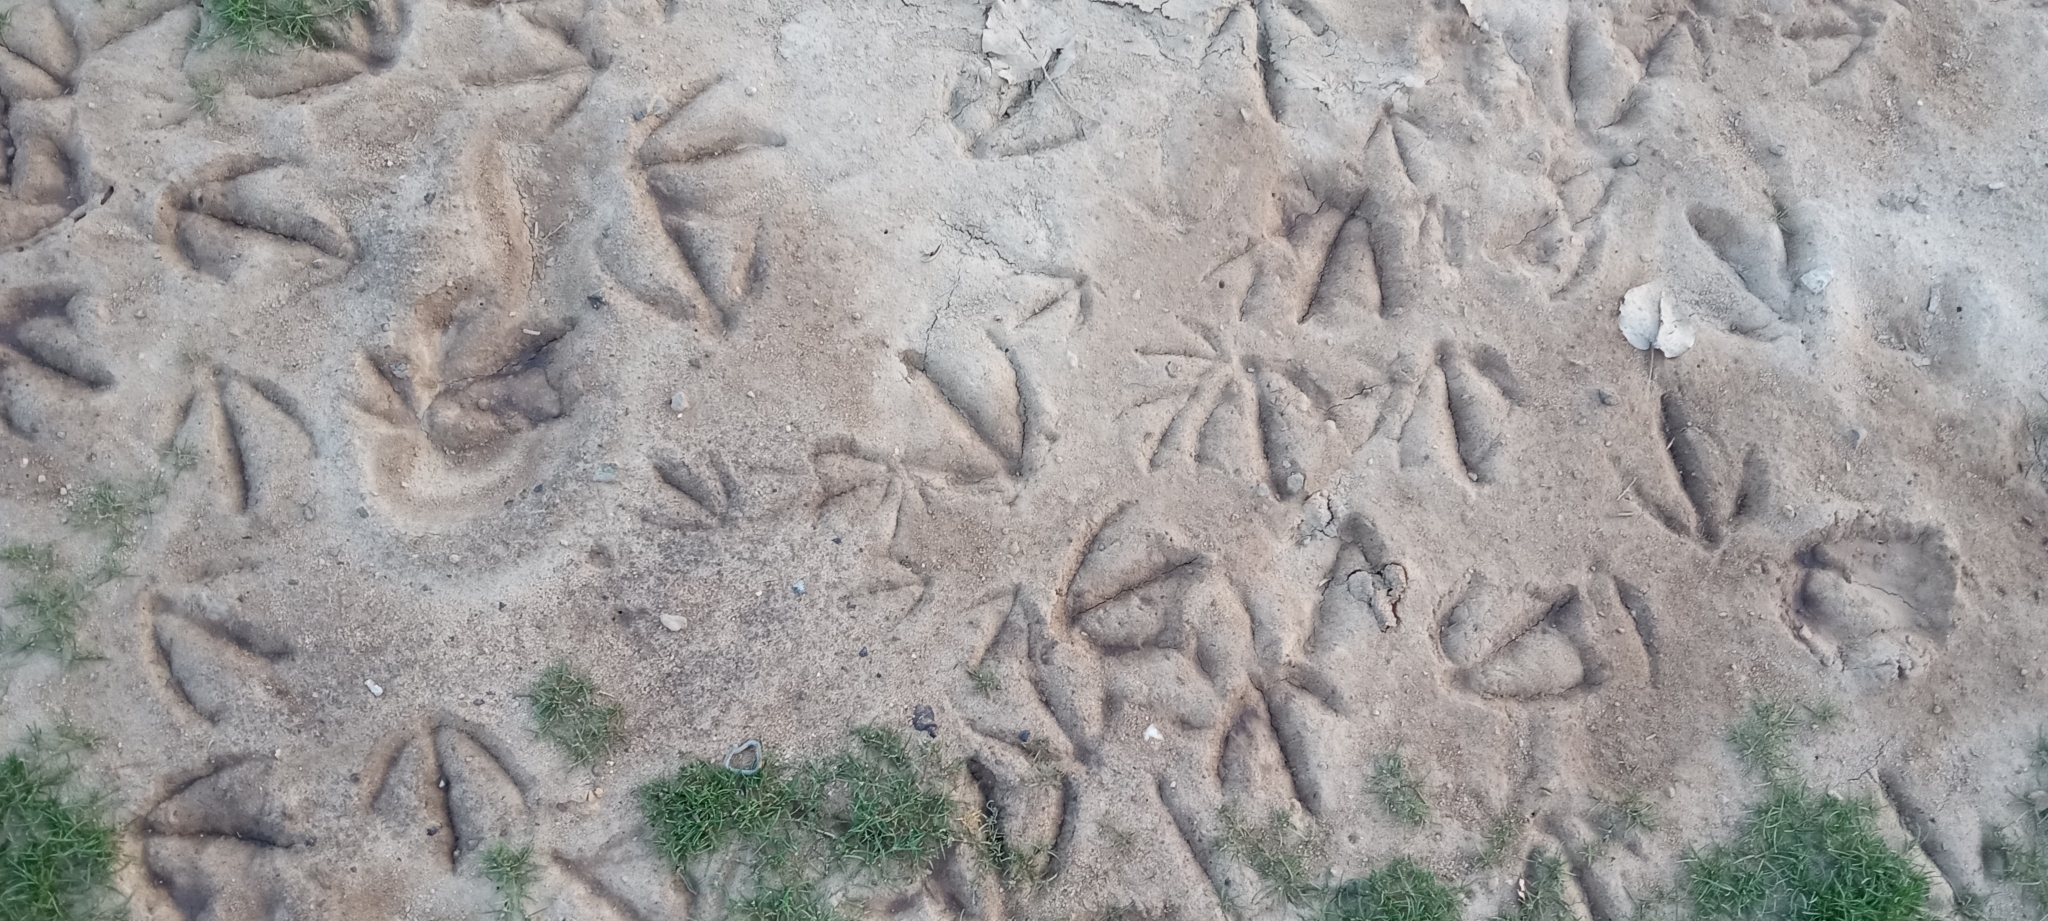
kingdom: Animalia
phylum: Chordata
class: Aves
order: Anseriformes
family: Anatidae
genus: Branta
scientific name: Branta canadensis
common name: Canada goose
